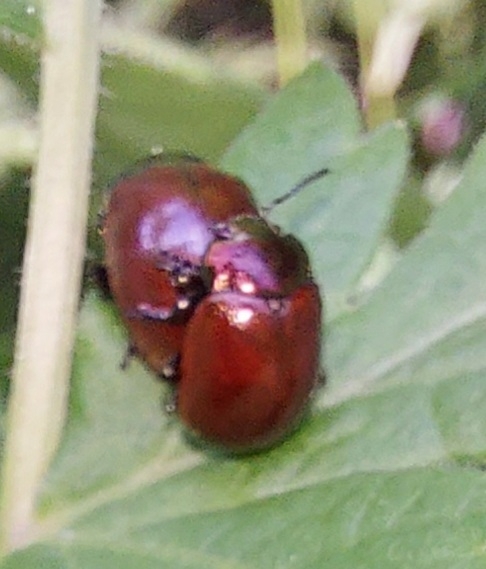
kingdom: Animalia
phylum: Arthropoda
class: Insecta
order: Coleoptera
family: Chrysomelidae
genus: Chrysomela
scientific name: Chrysomela polita
